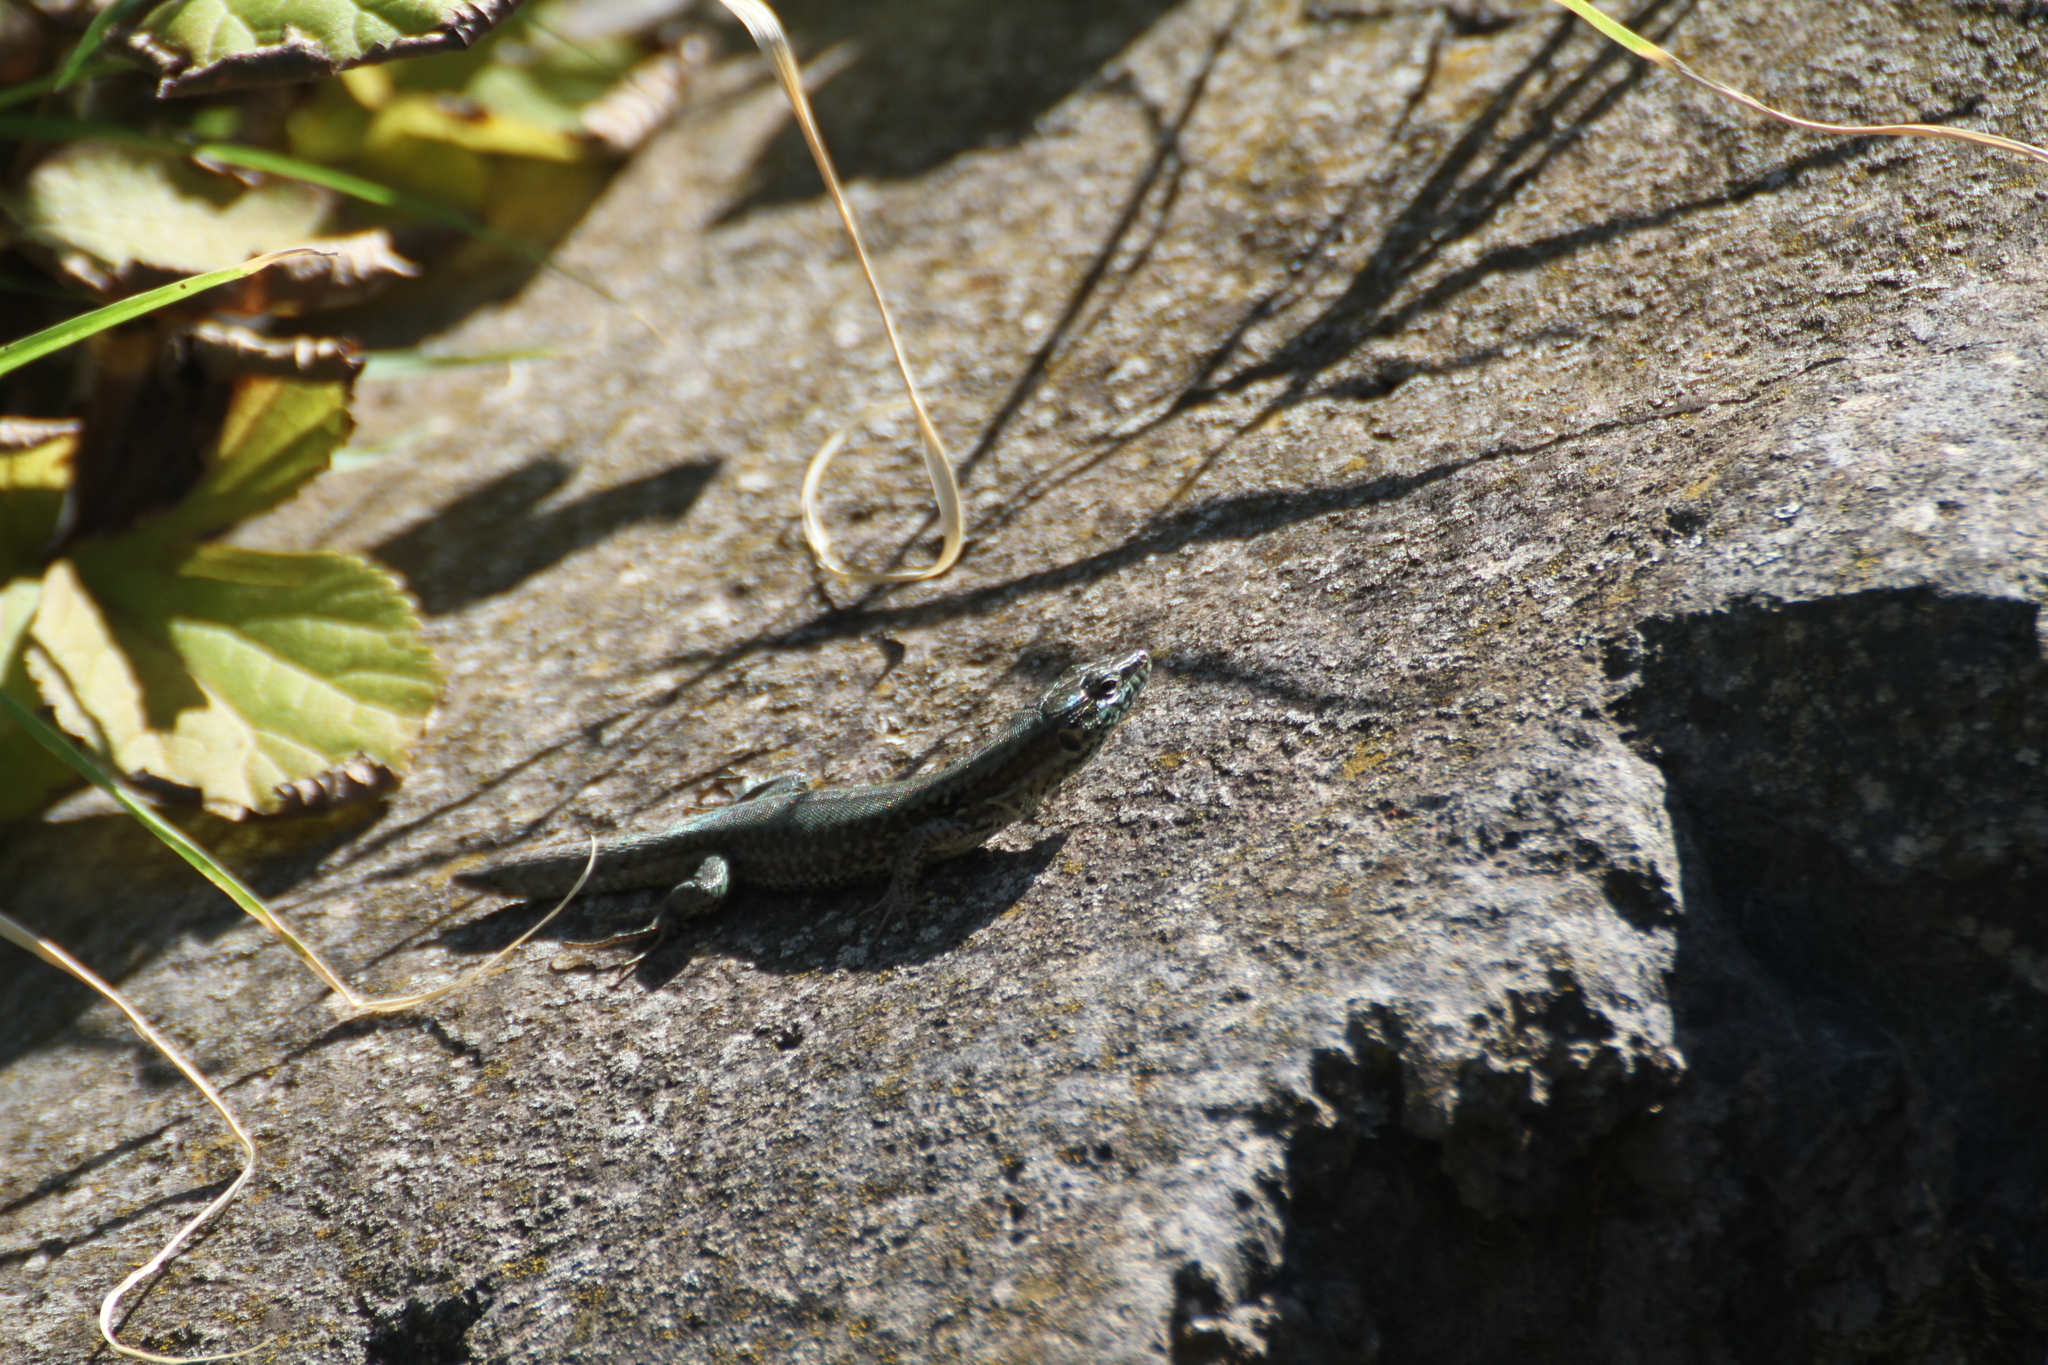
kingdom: Animalia
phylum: Chordata
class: Squamata
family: Lacertidae
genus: Podarcis
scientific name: Podarcis muralis
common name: Common wall lizard
